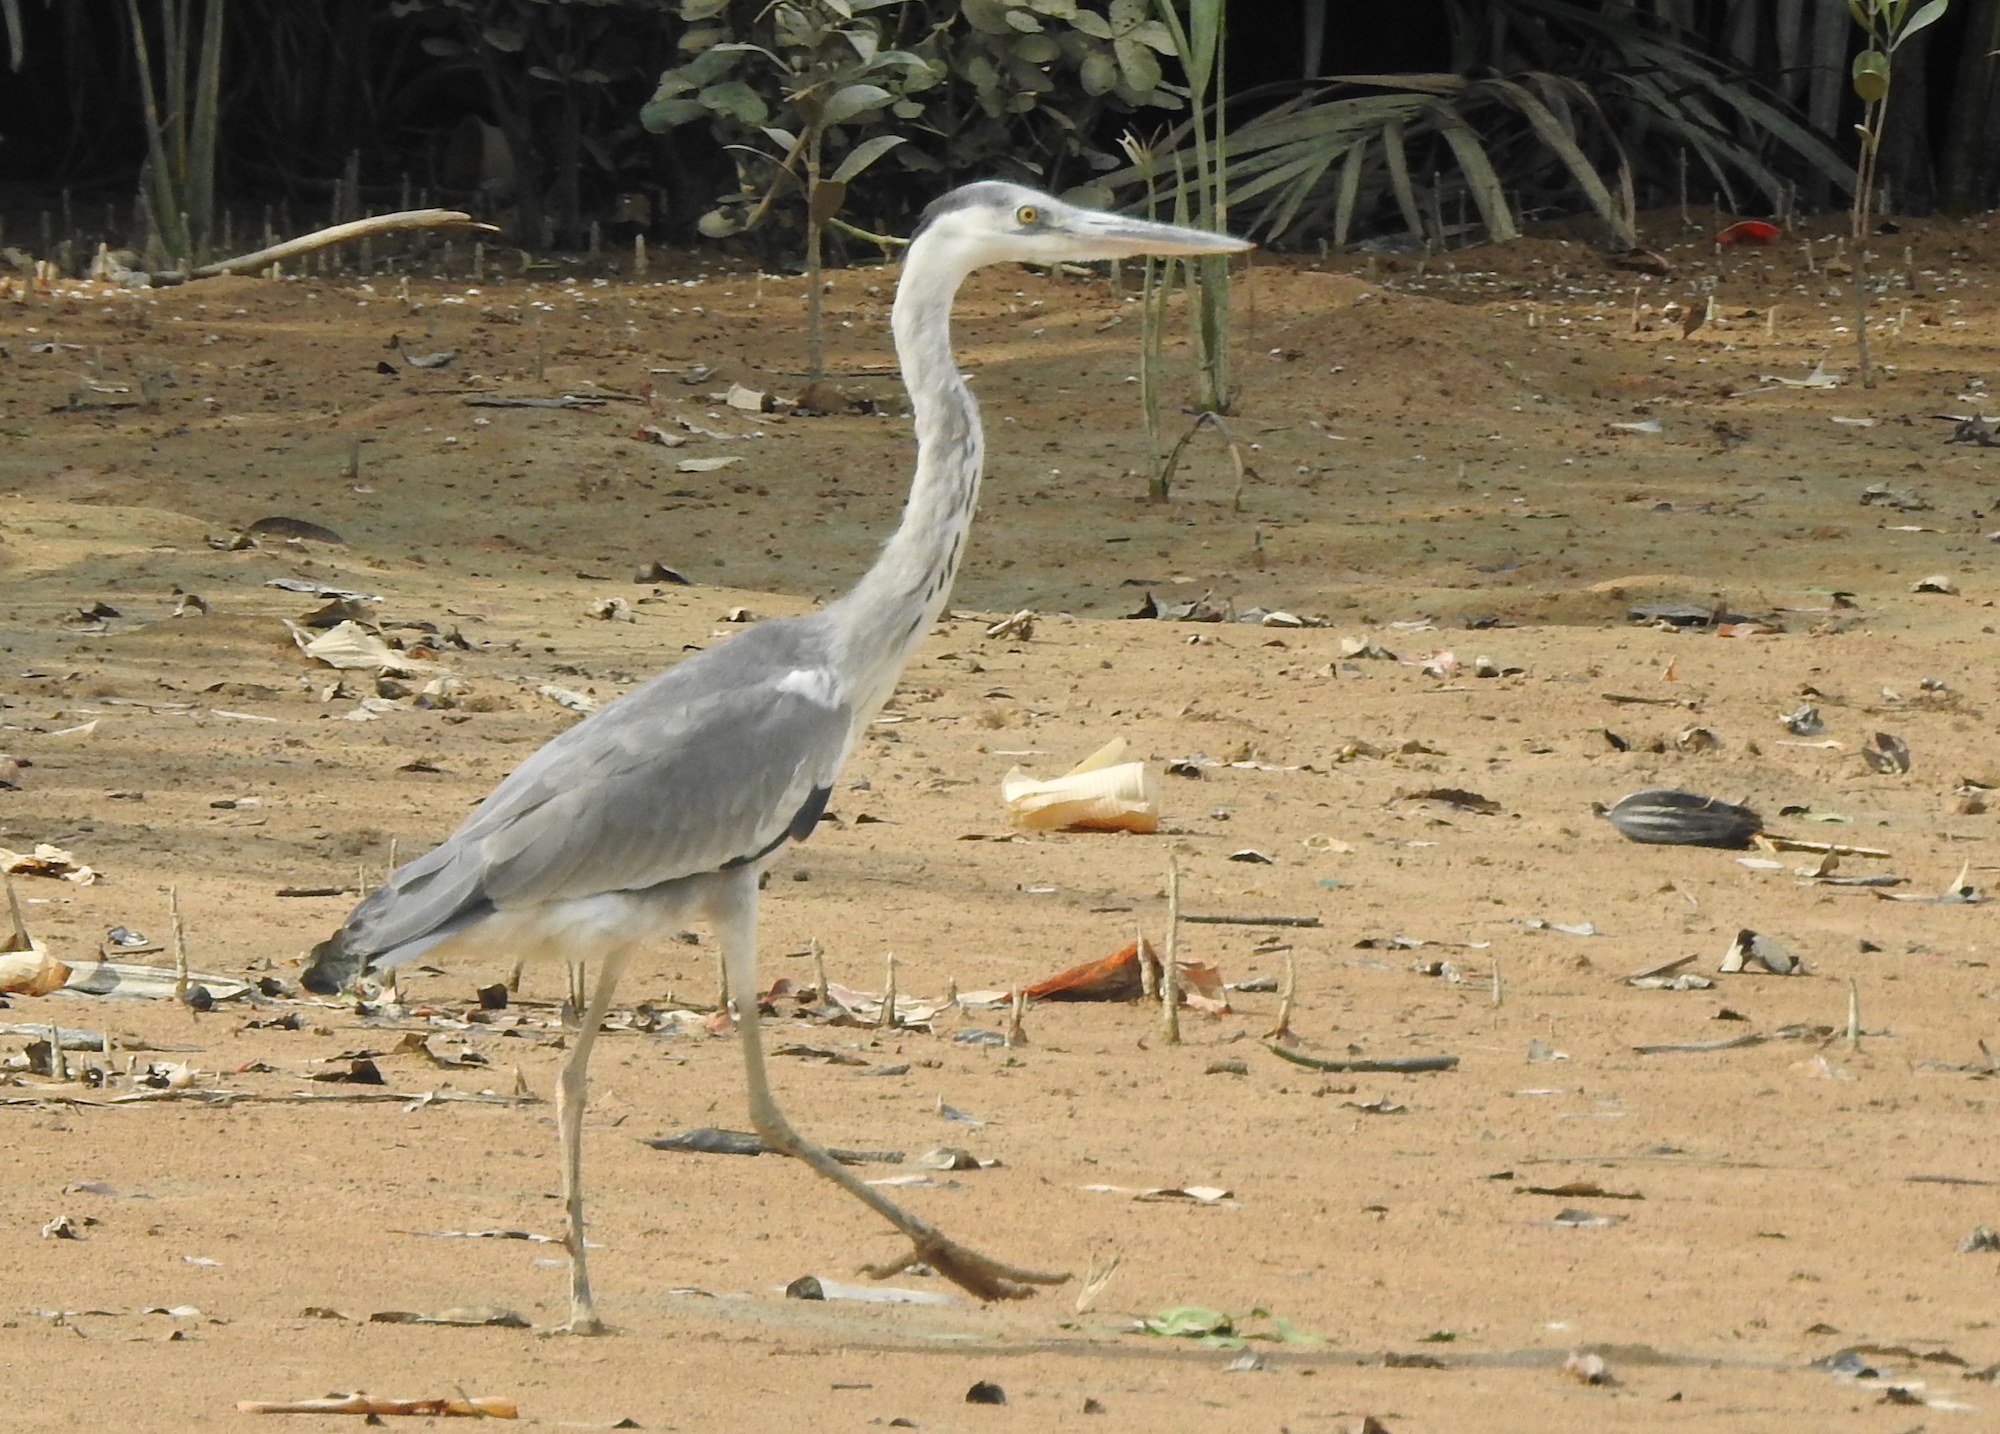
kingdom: Animalia
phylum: Chordata
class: Aves
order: Pelecaniformes
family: Ardeidae
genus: Ardea
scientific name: Ardea cinerea
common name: Grey heron
